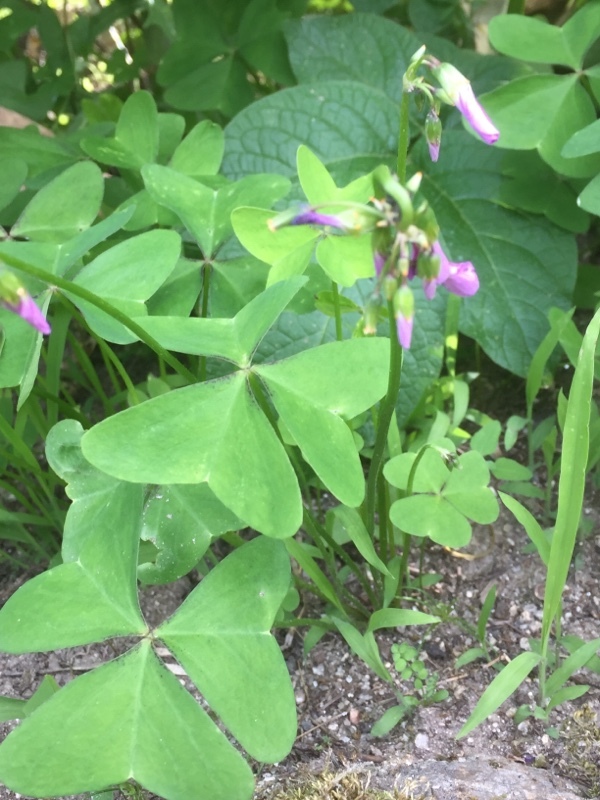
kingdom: Plantae
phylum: Tracheophyta
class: Magnoliopsida
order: Oxalidales
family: Oxalidaceae
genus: Oxalis
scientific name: Oxalis latifolia
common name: Garden pink-sorrel
